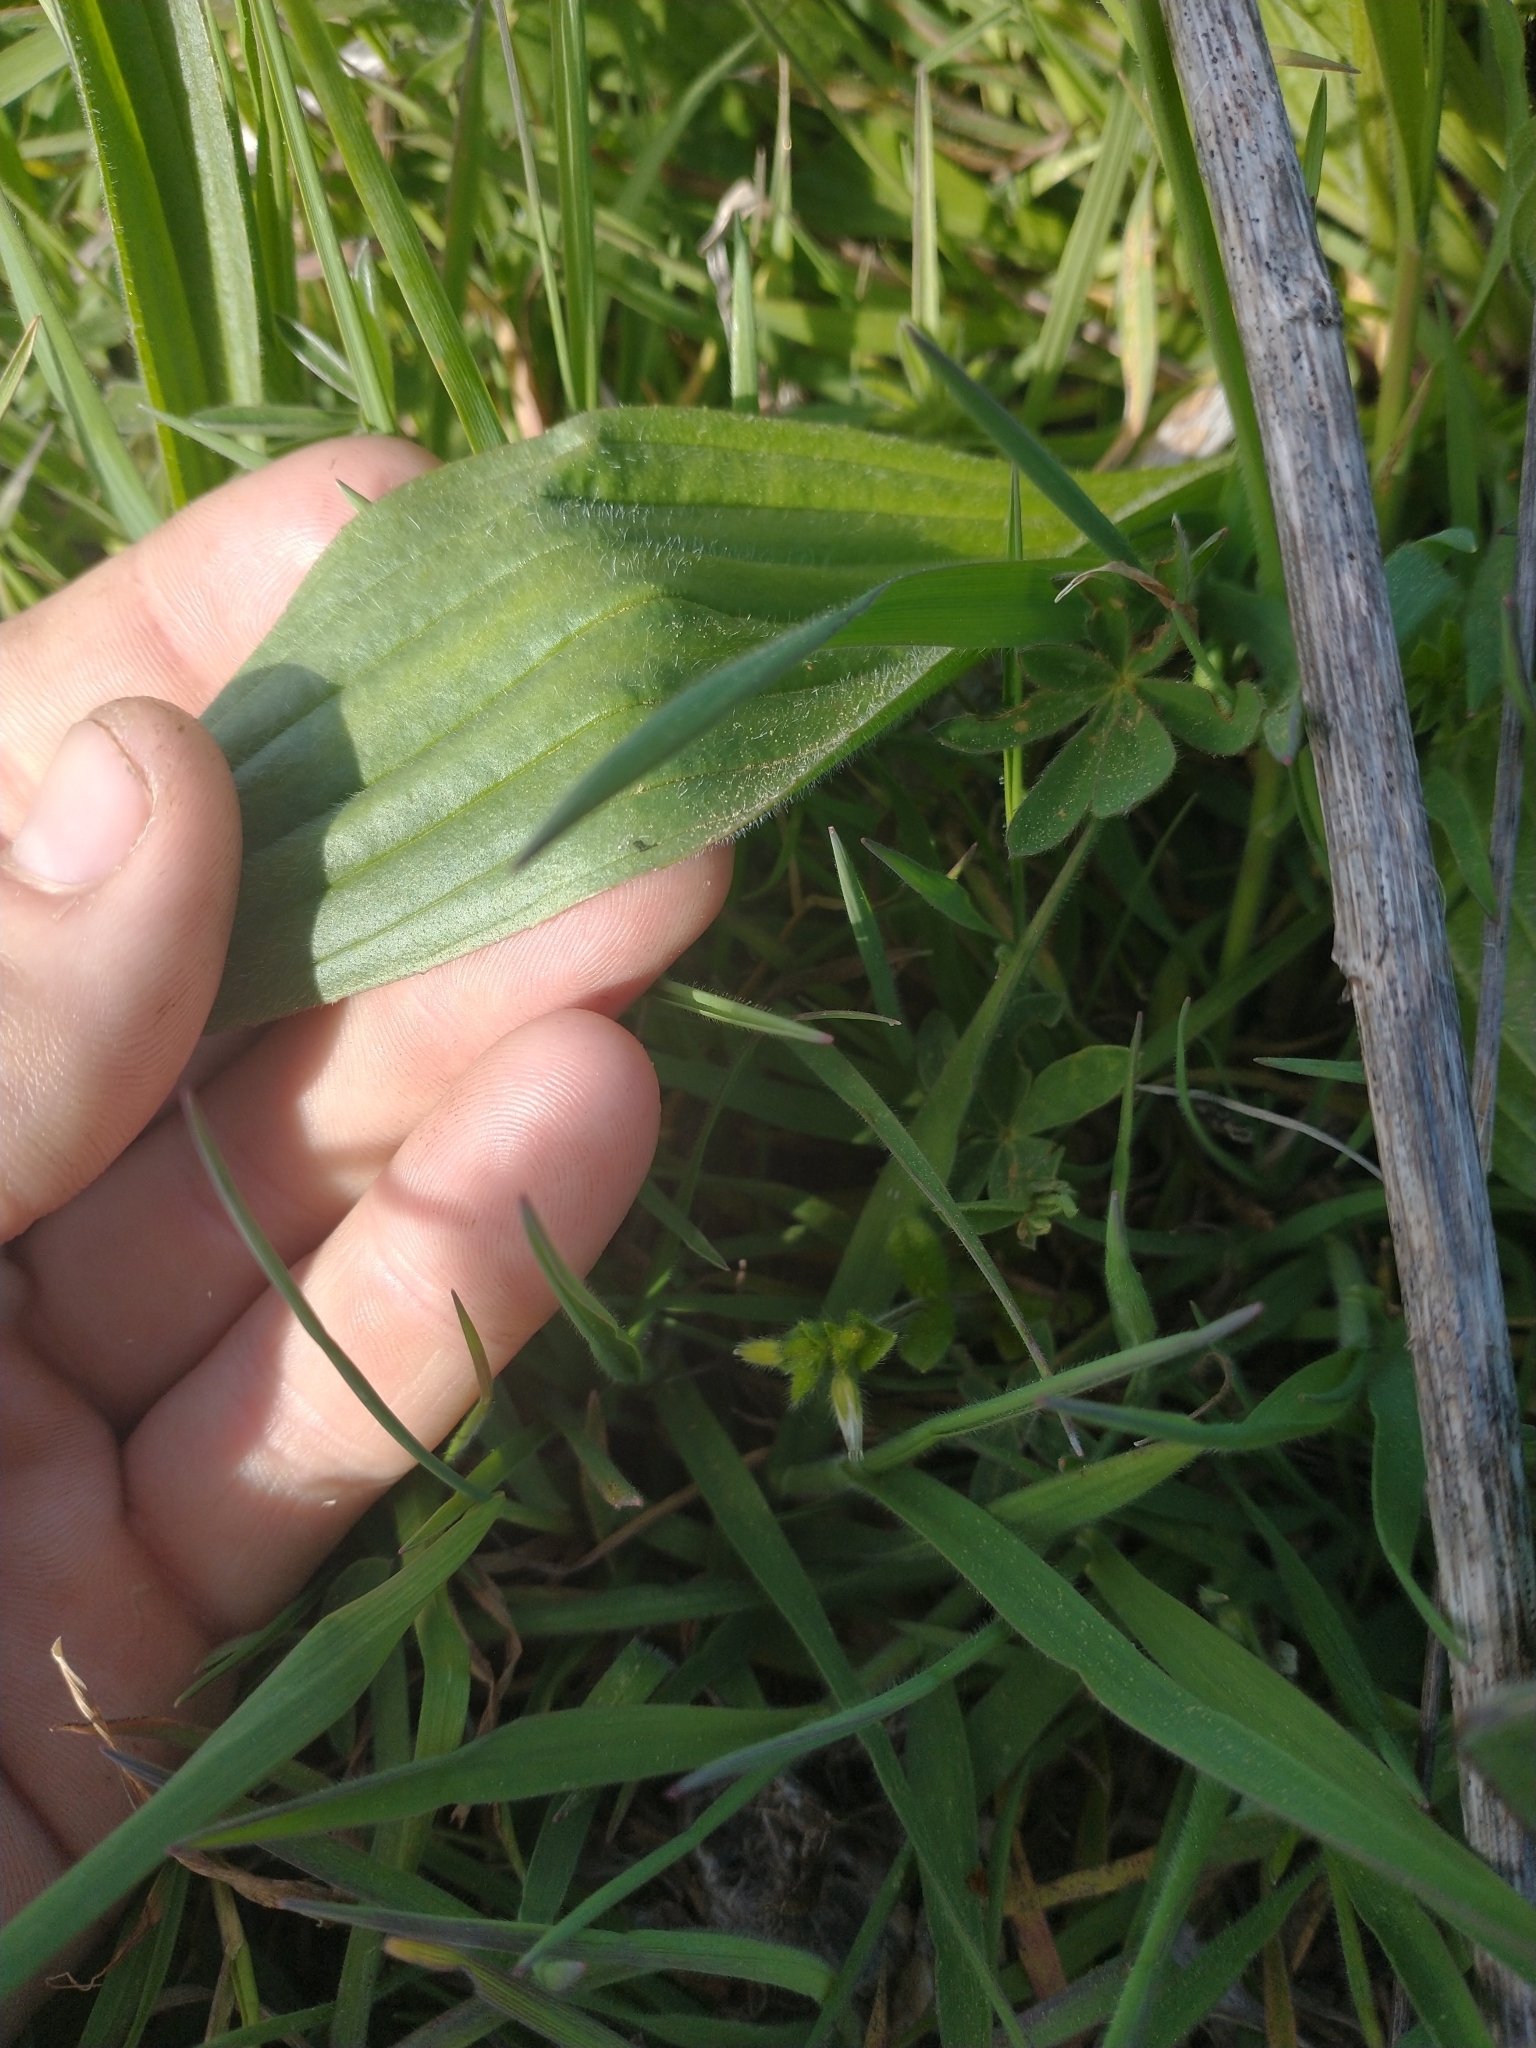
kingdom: Plantae
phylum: Tracheophyta
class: Magnoliopsida
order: Lamiales
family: Plantaginaceae
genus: Plantago
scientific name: Plantago lanceolata
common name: Ribwort plantain
